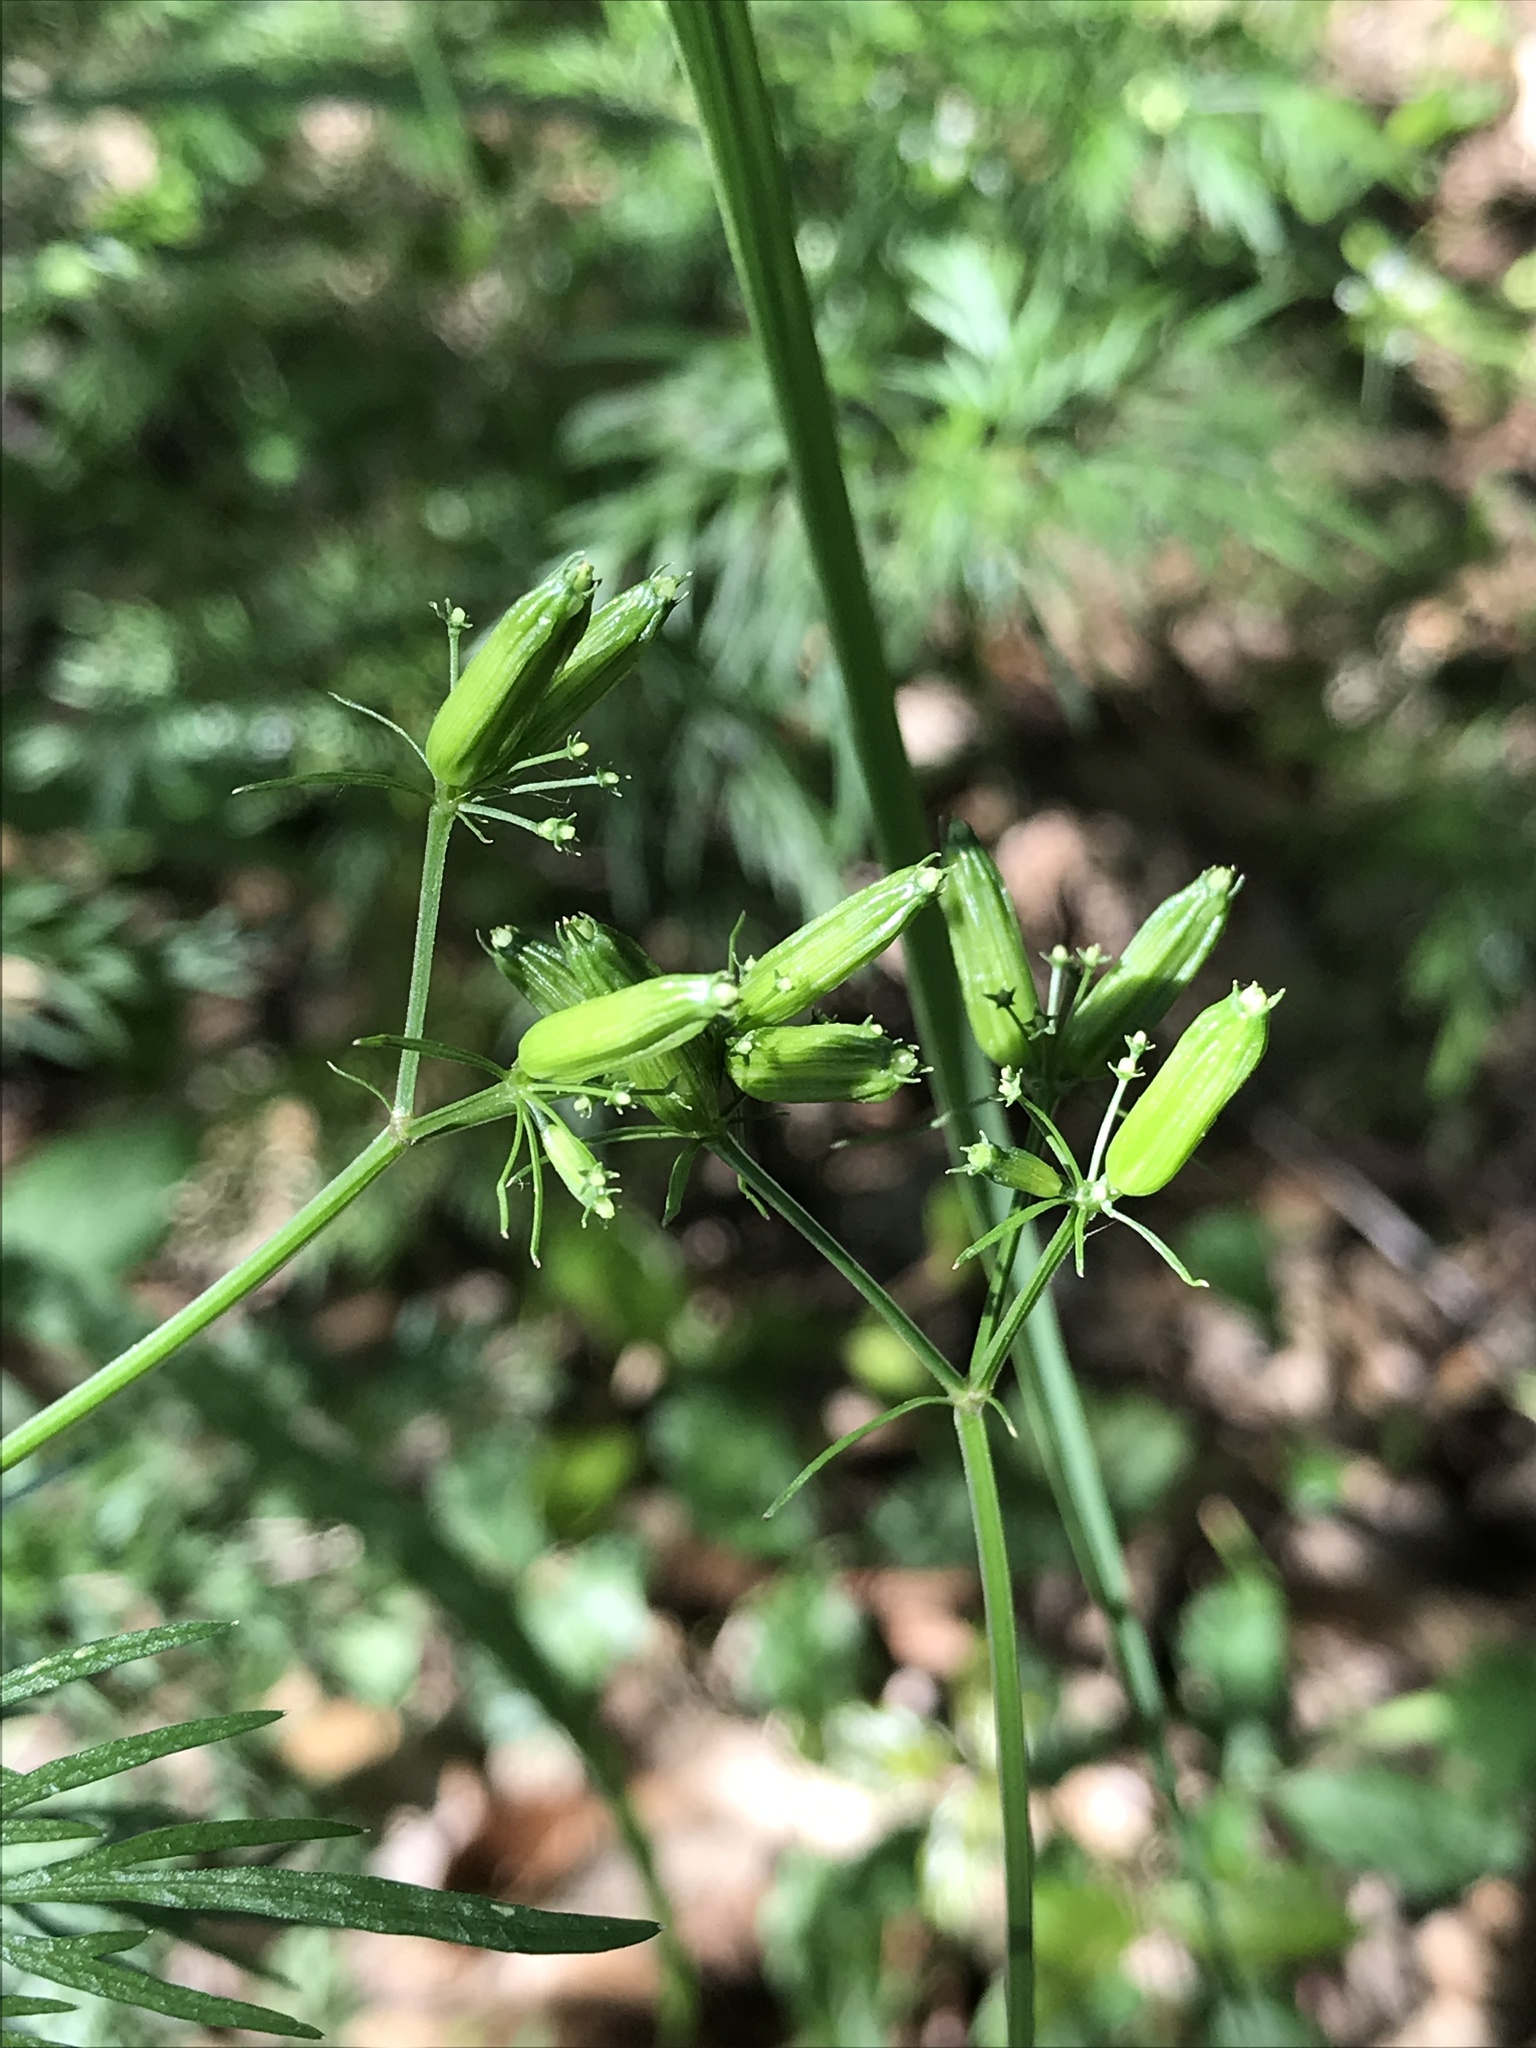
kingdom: Plantae
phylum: Tracheophyta
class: Magnoliopsida
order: Apiales
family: Apiaceae
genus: Trepocarpus
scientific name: Trepocarpus aethusae
